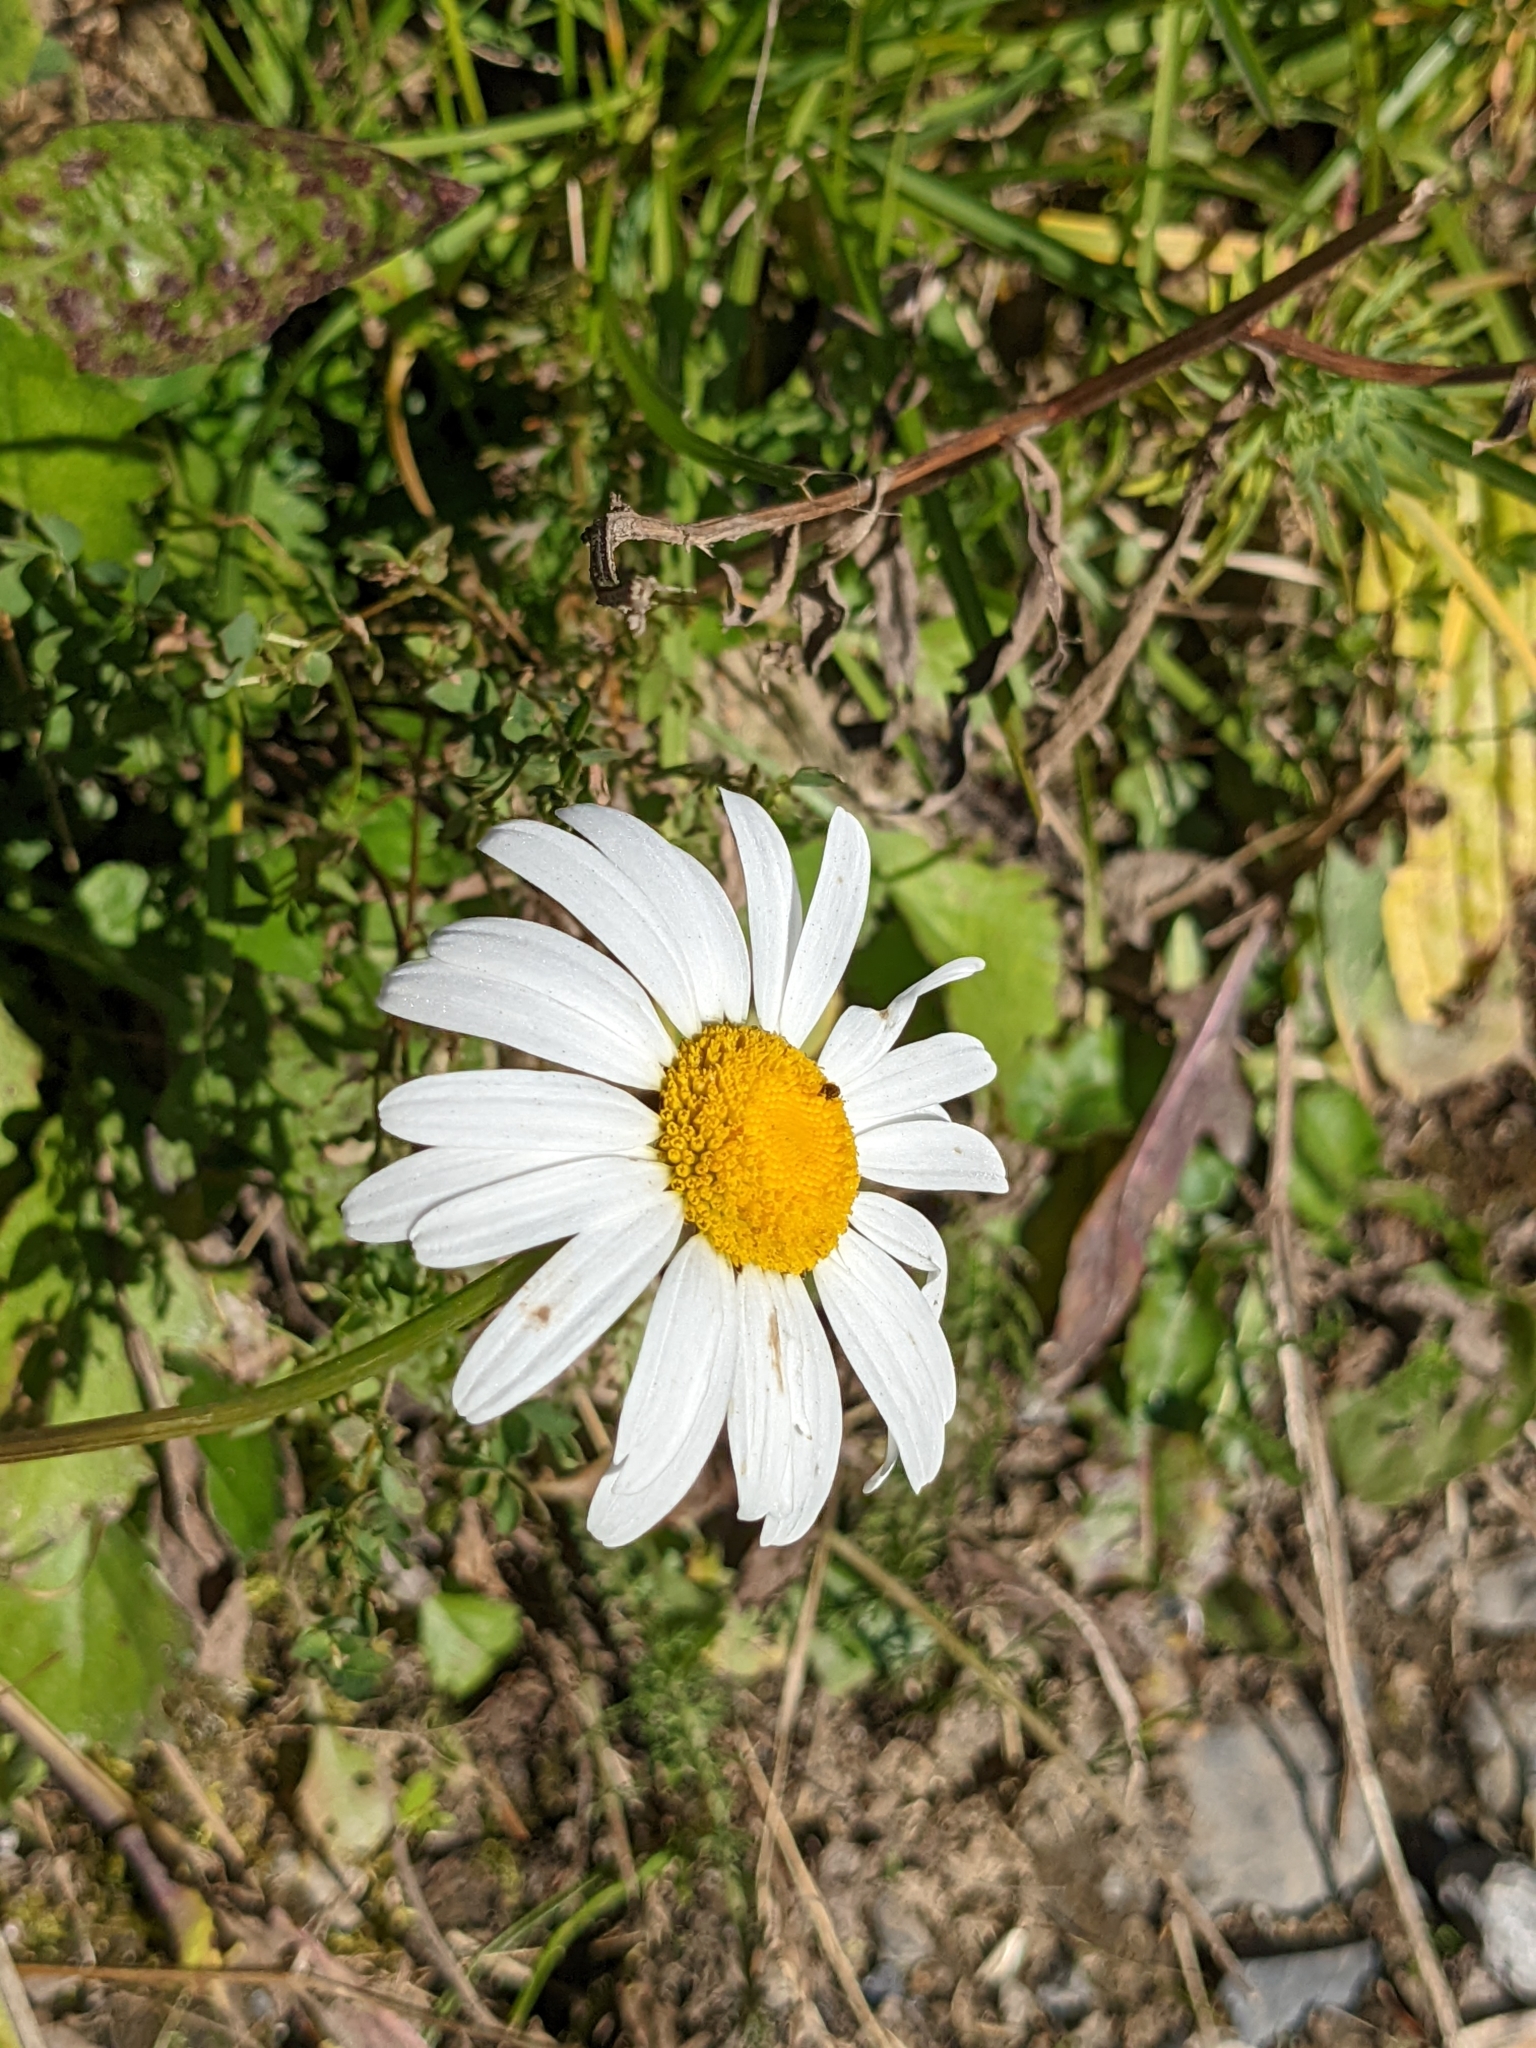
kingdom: Plantae
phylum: Tracheophyta
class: Magnoliopsida
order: Asterales
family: Asteraceae
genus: Leucanthemum
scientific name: Leucanthemum vulgare
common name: Oxeye daisy
